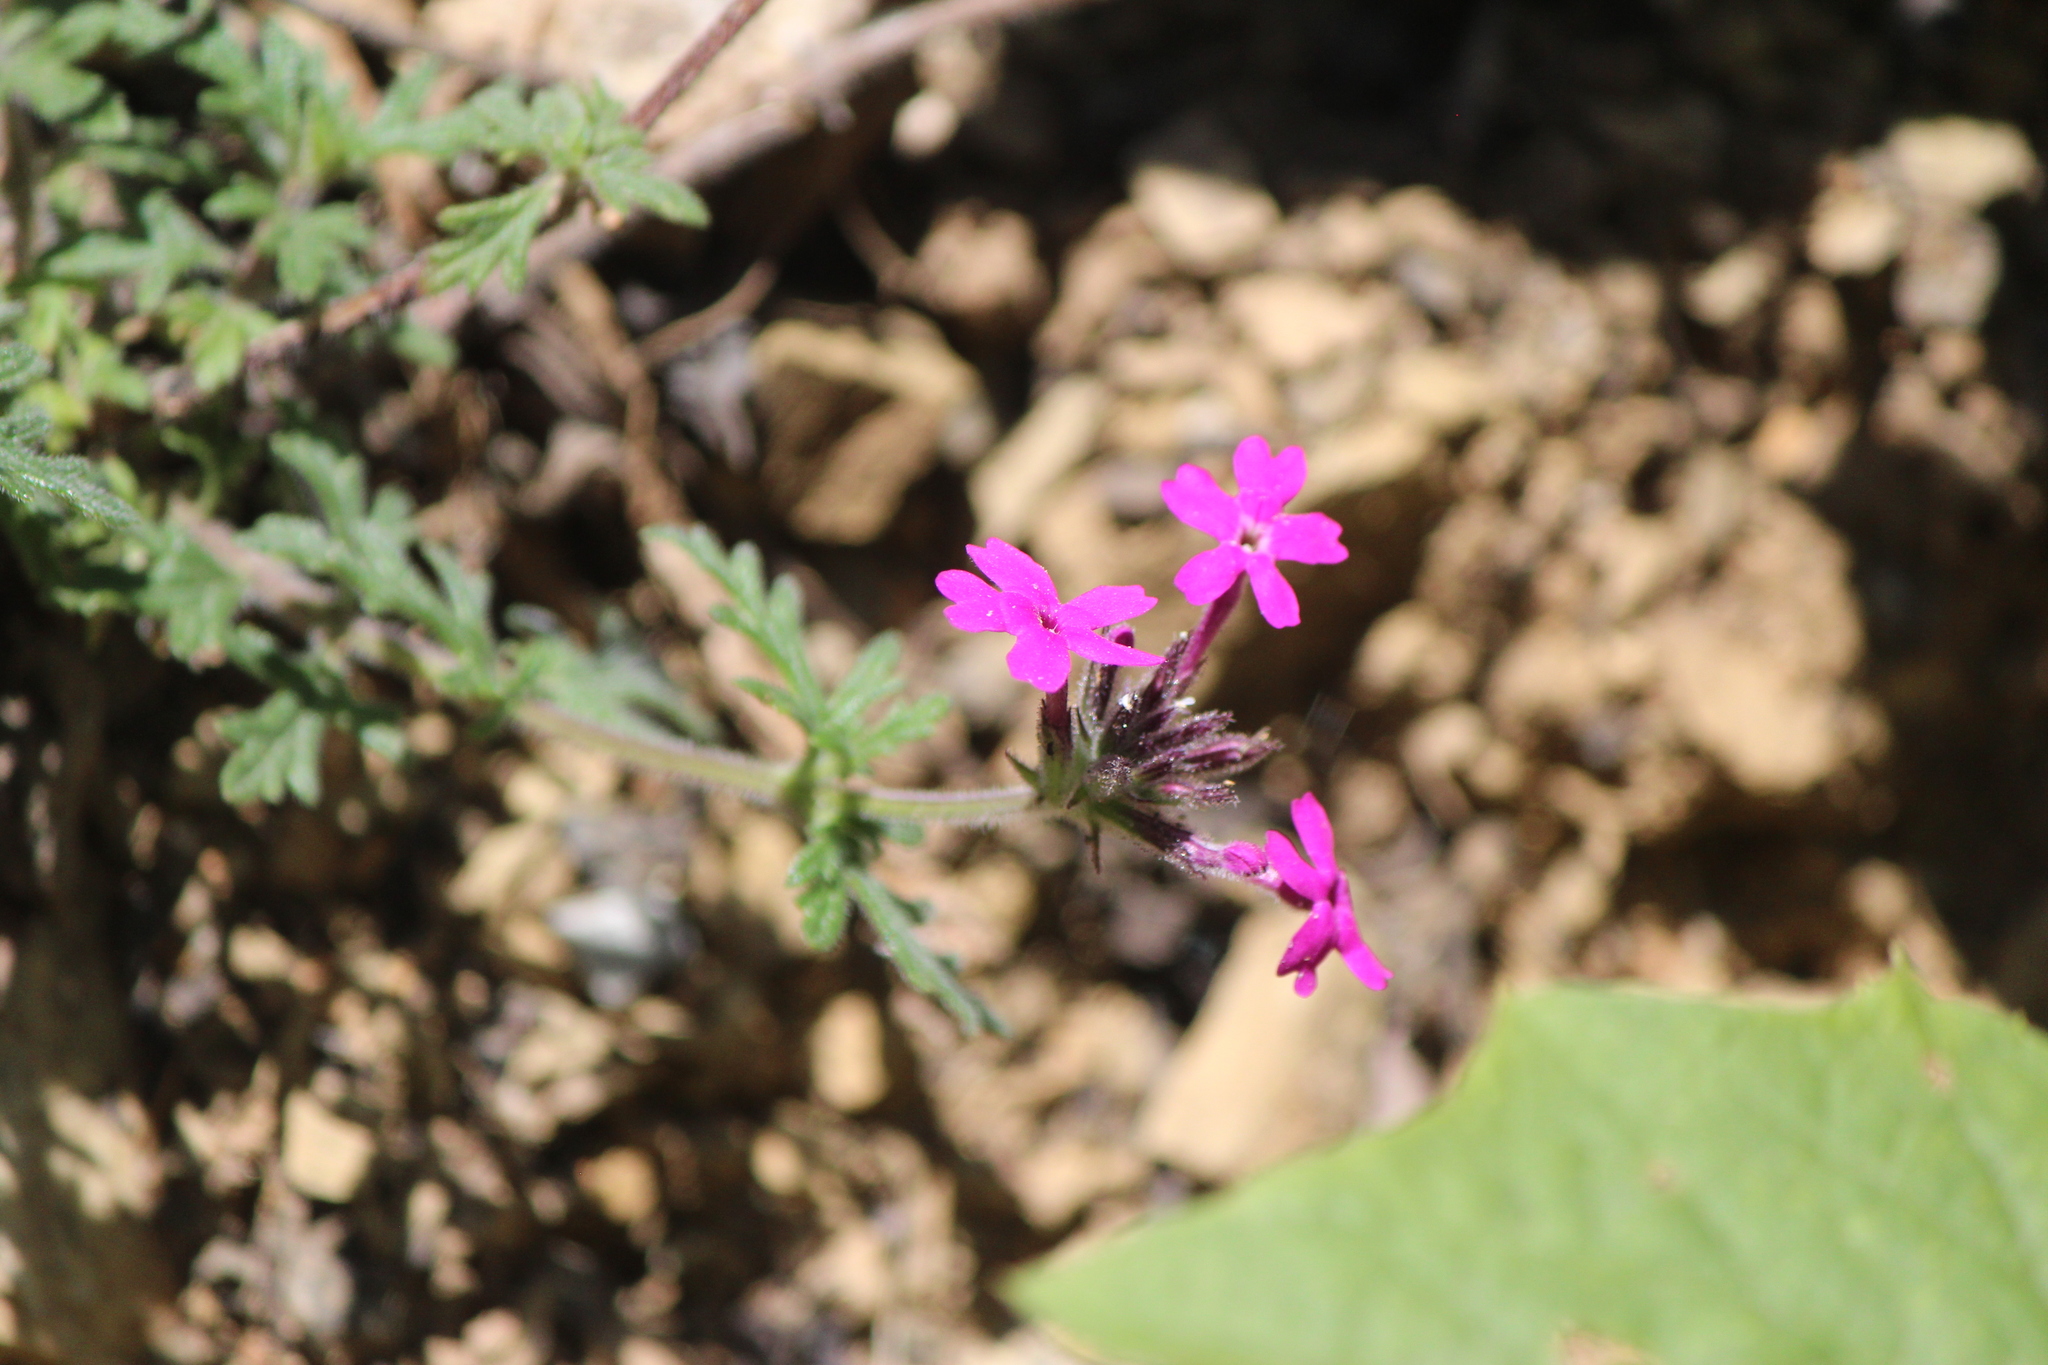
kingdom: Plantae
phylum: Tracheophyta
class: Magnoliopsida
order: Lamiales
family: Verbenaceae
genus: Verbena
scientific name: Verbena bipinnatifida
